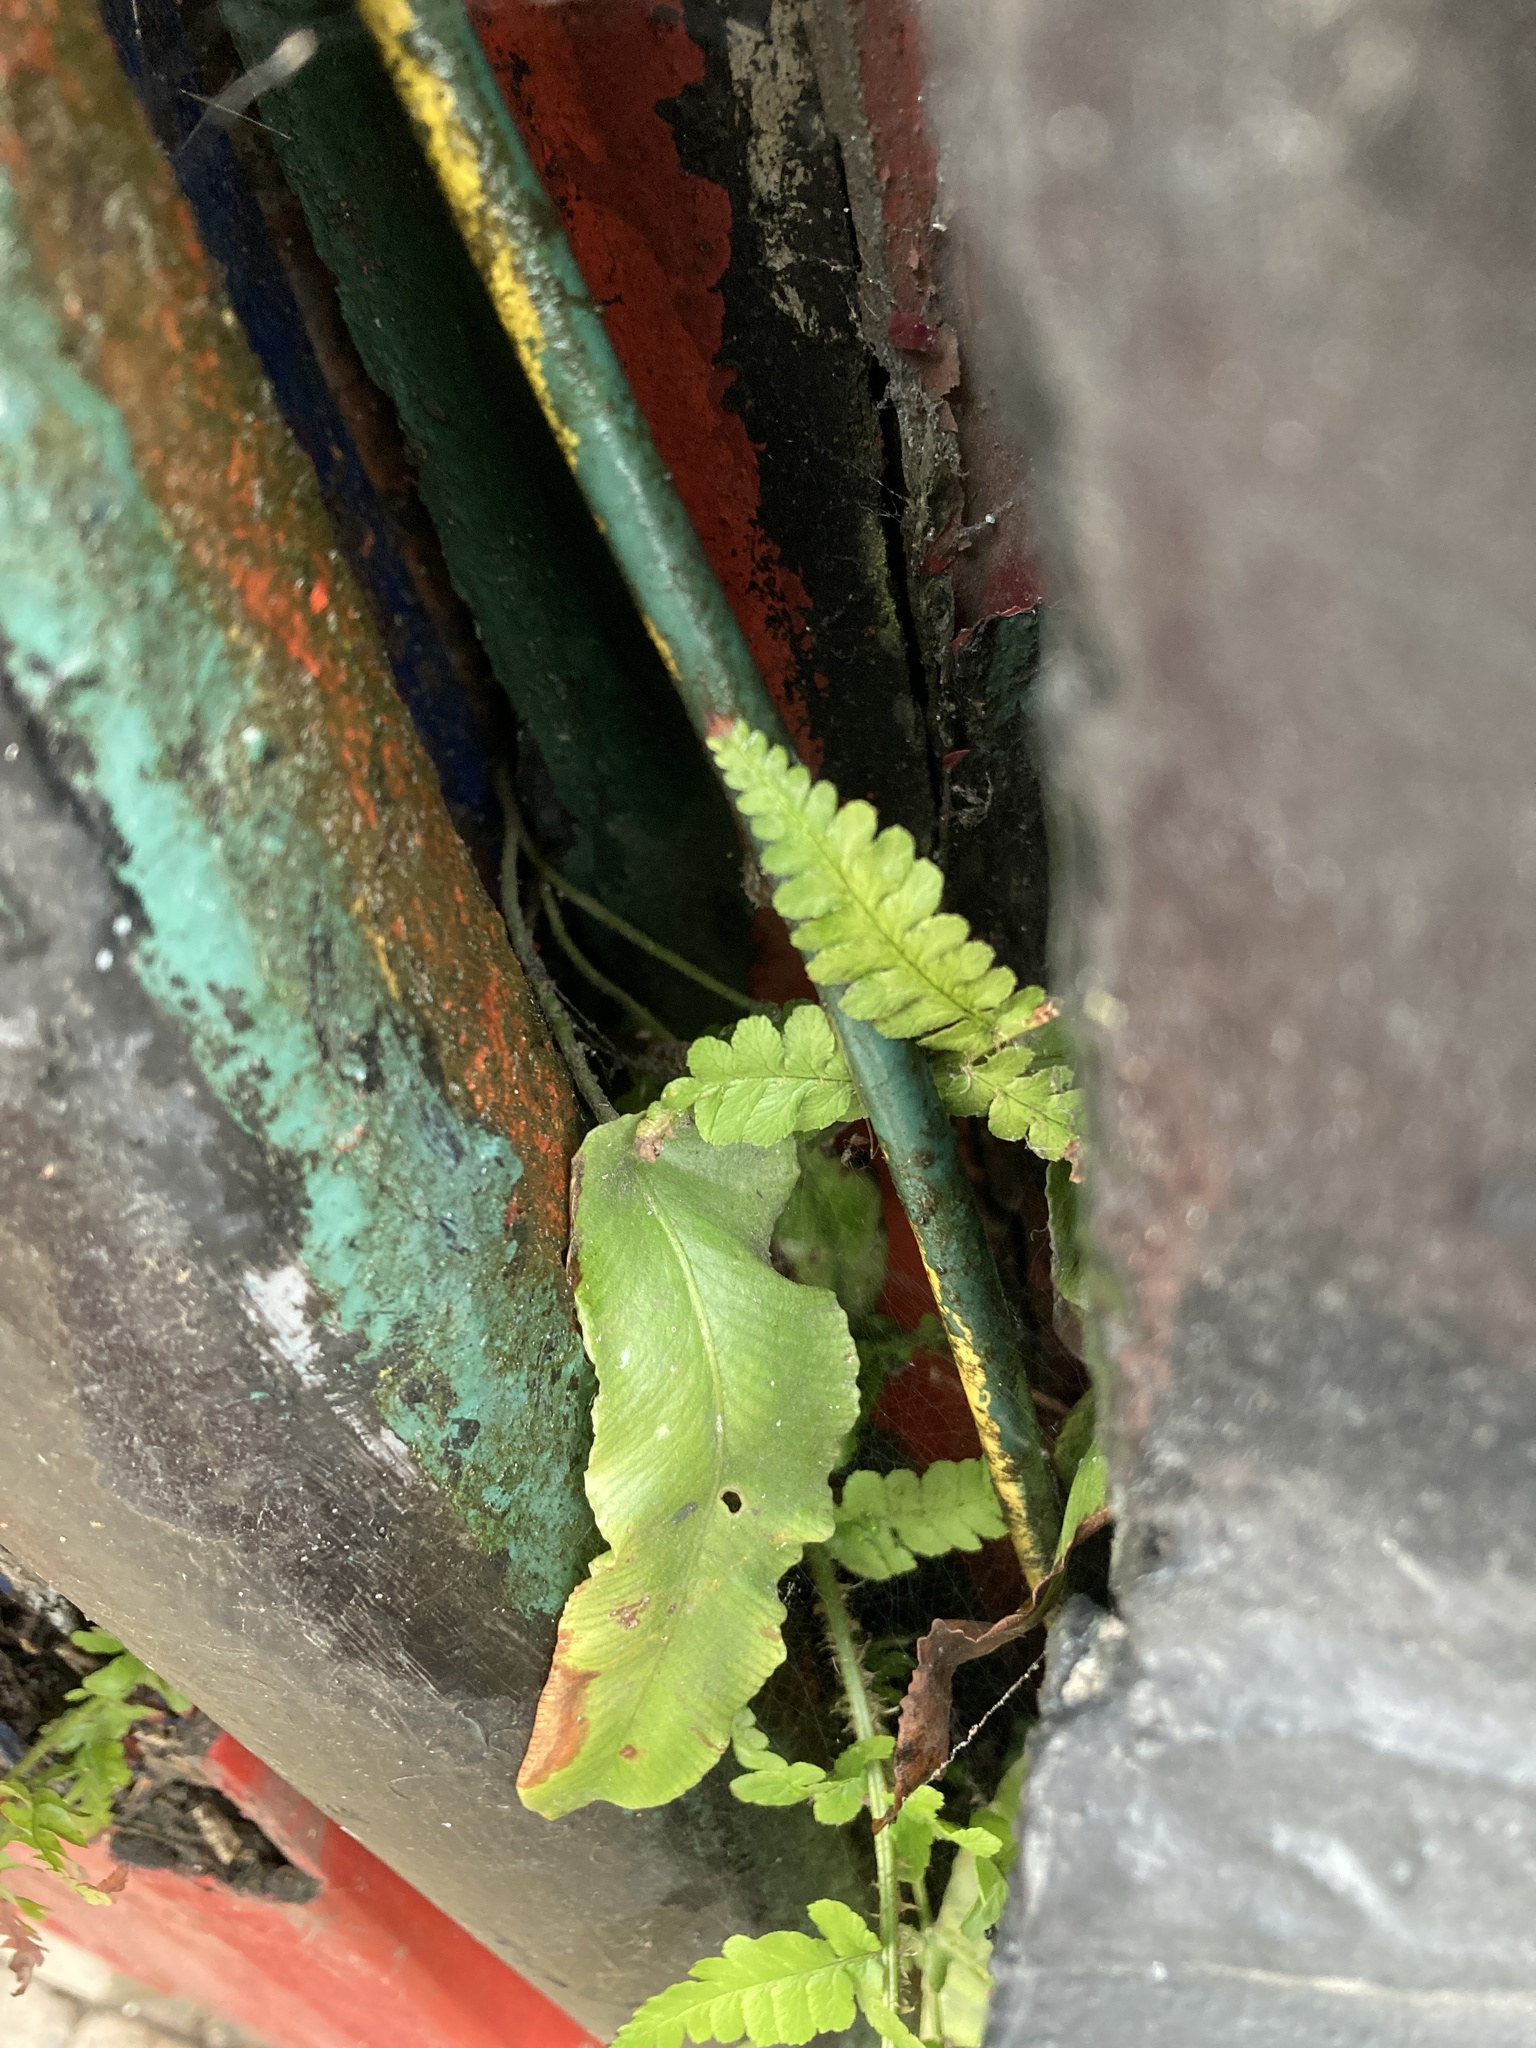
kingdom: Plantae
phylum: Tracheophyta
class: Polypodiopsida
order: Polypodiales
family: Aspleniaceae
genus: Asplenium
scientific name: Asplenium scolopendrium
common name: Hart's-tongue fern
